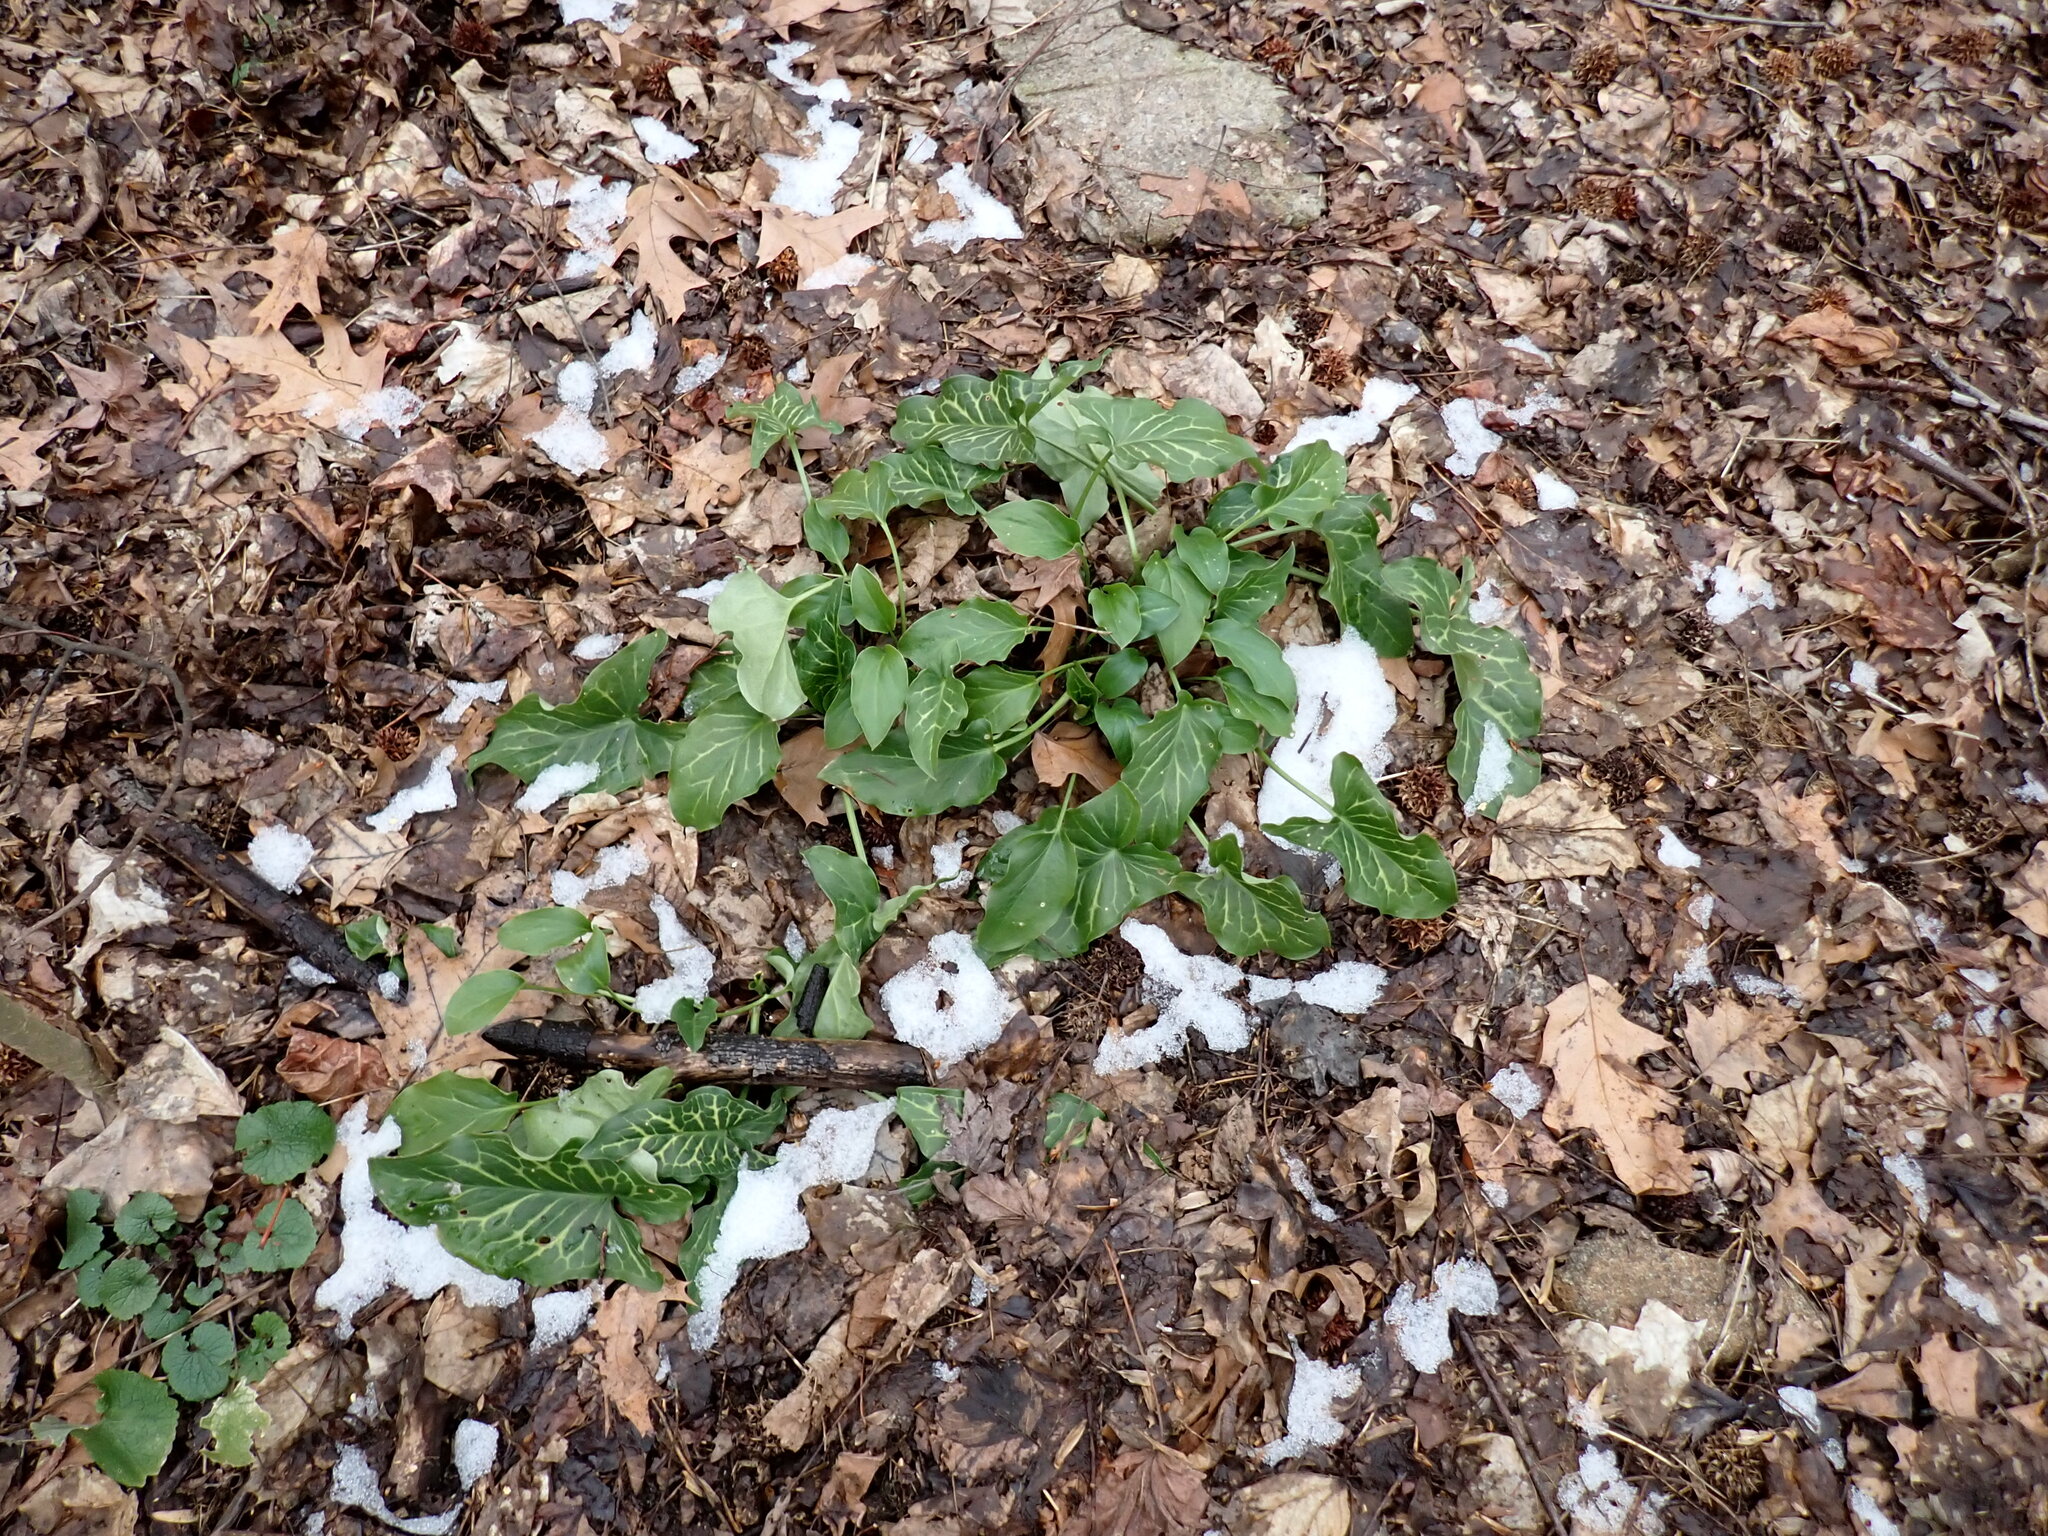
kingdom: Plantae
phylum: Tracheophyta
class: Liliopsida
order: Alismatales
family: Araceae
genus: Arum
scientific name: Arum italicum
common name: Italian lords-and-ladies
